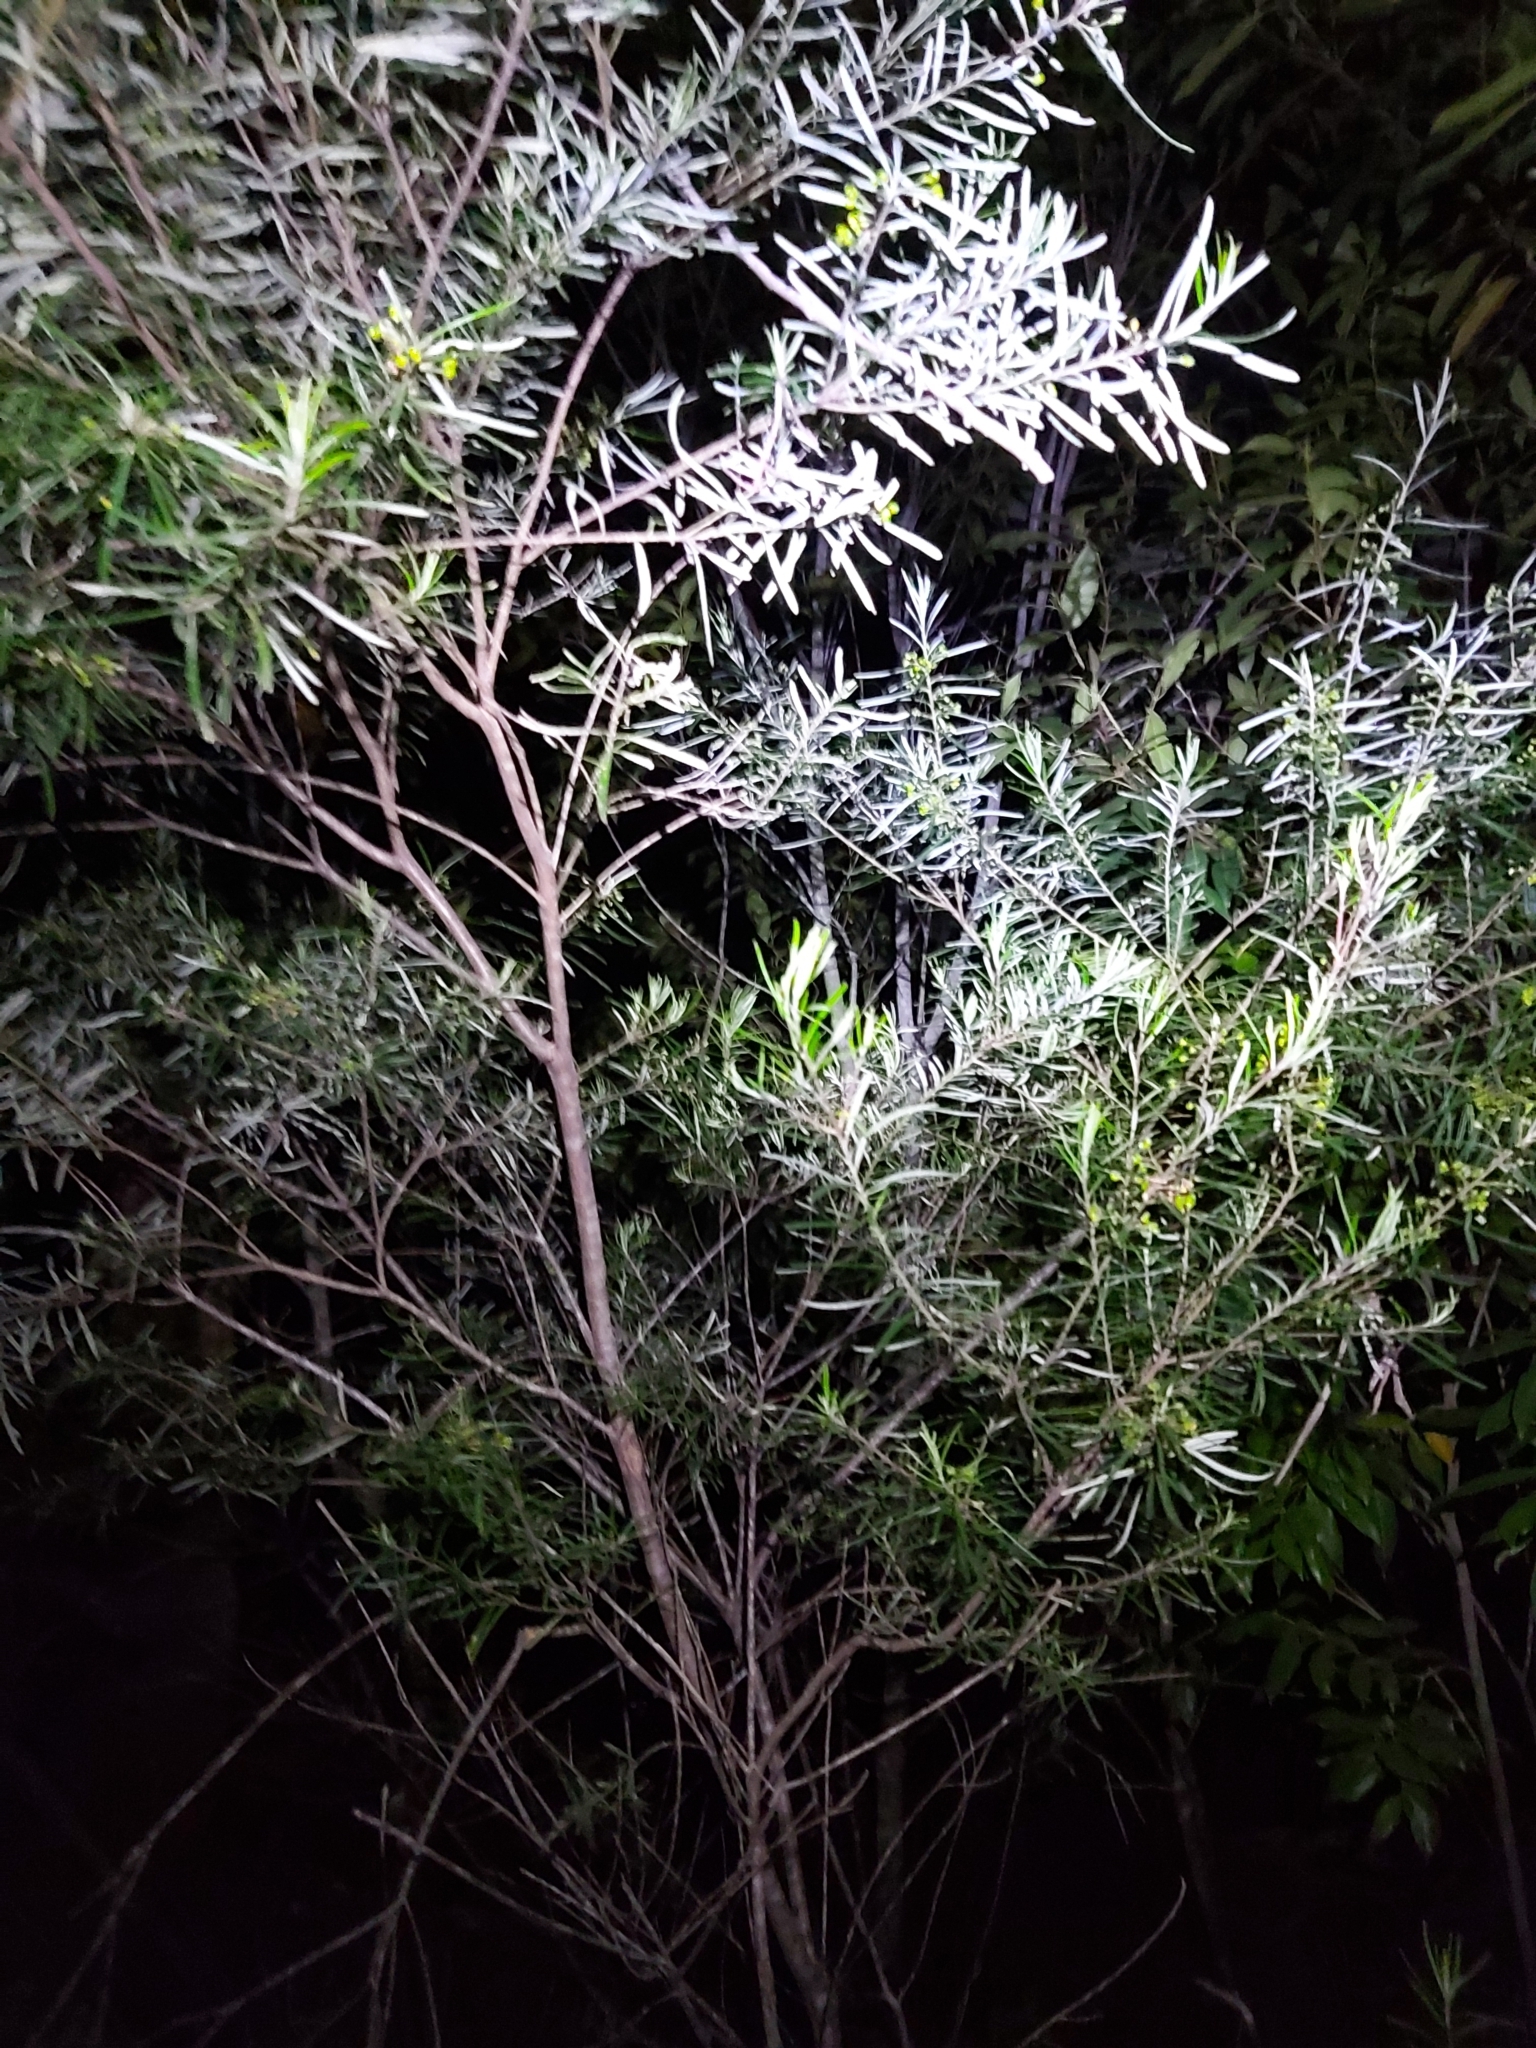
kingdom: Plantae
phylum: Tracheophyta
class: Magnoliopsida
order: Sapindales
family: Rutaceae
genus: Leionema
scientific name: Leionema dentatum
